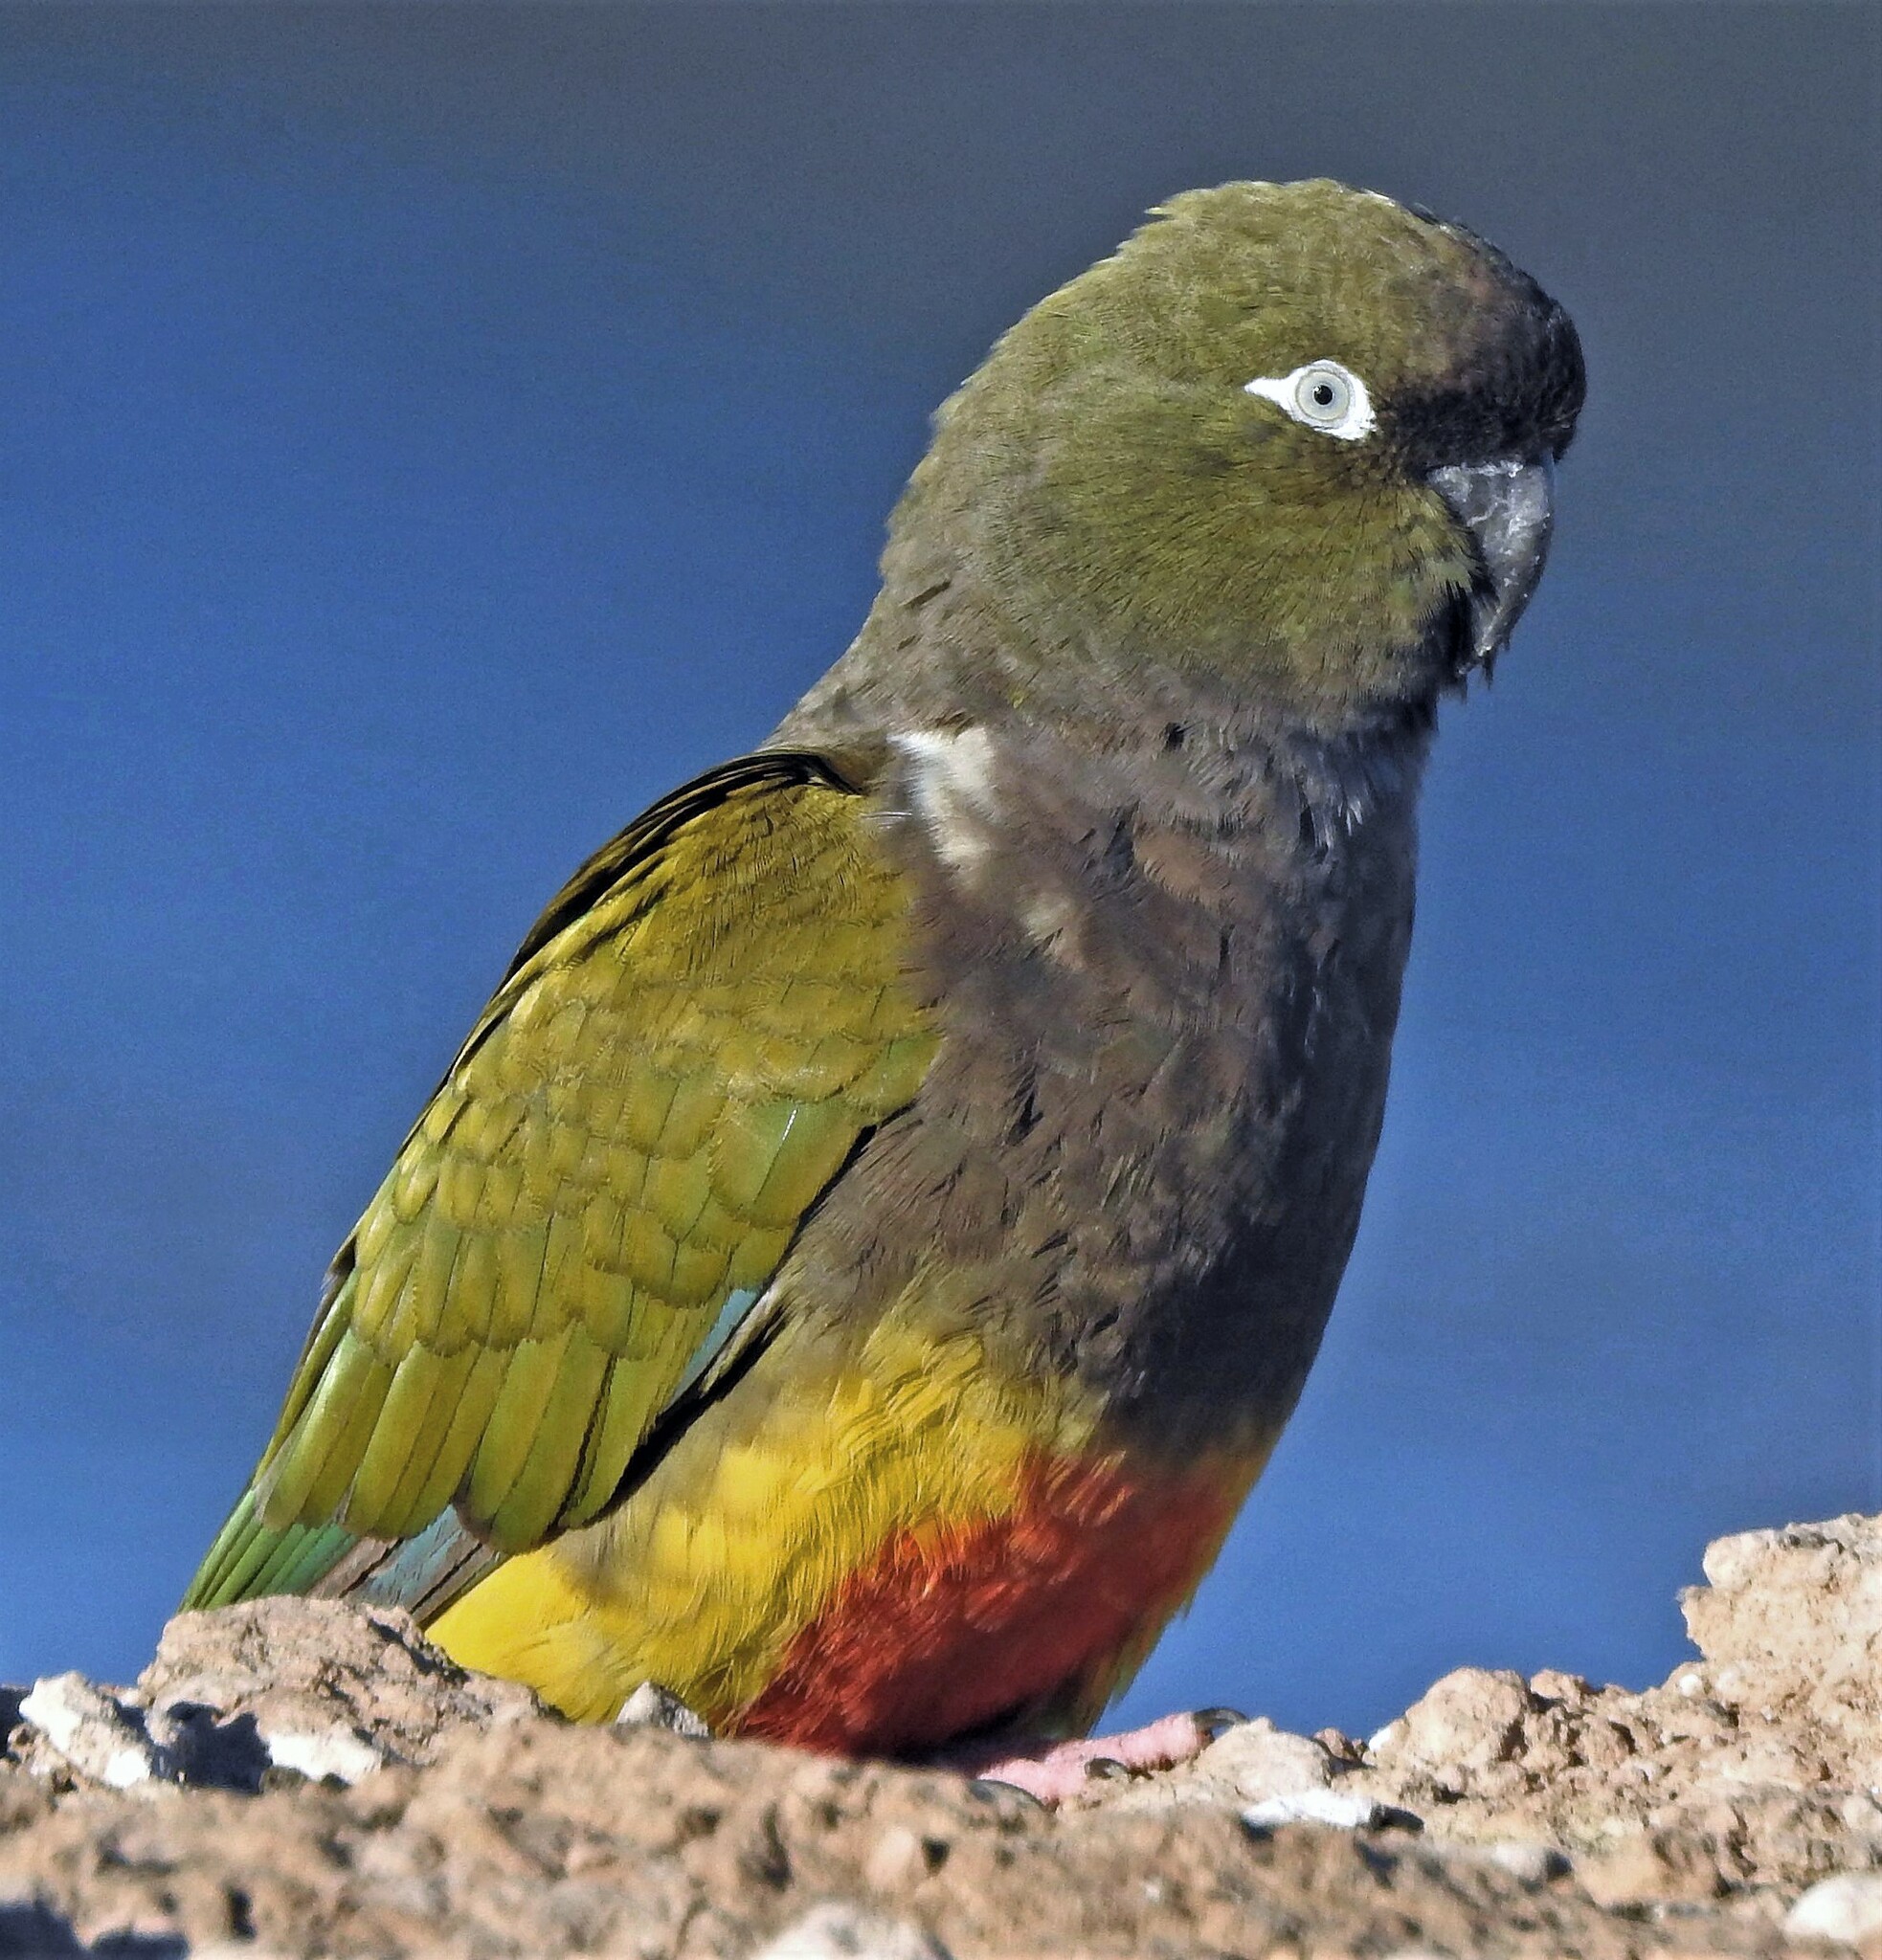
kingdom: Animalia
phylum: Chordata
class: Aves
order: Psittaciformes
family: Psittacidae
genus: Cyanoliseus
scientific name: Cyanoliseus patagonus
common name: Burrowing parrot
